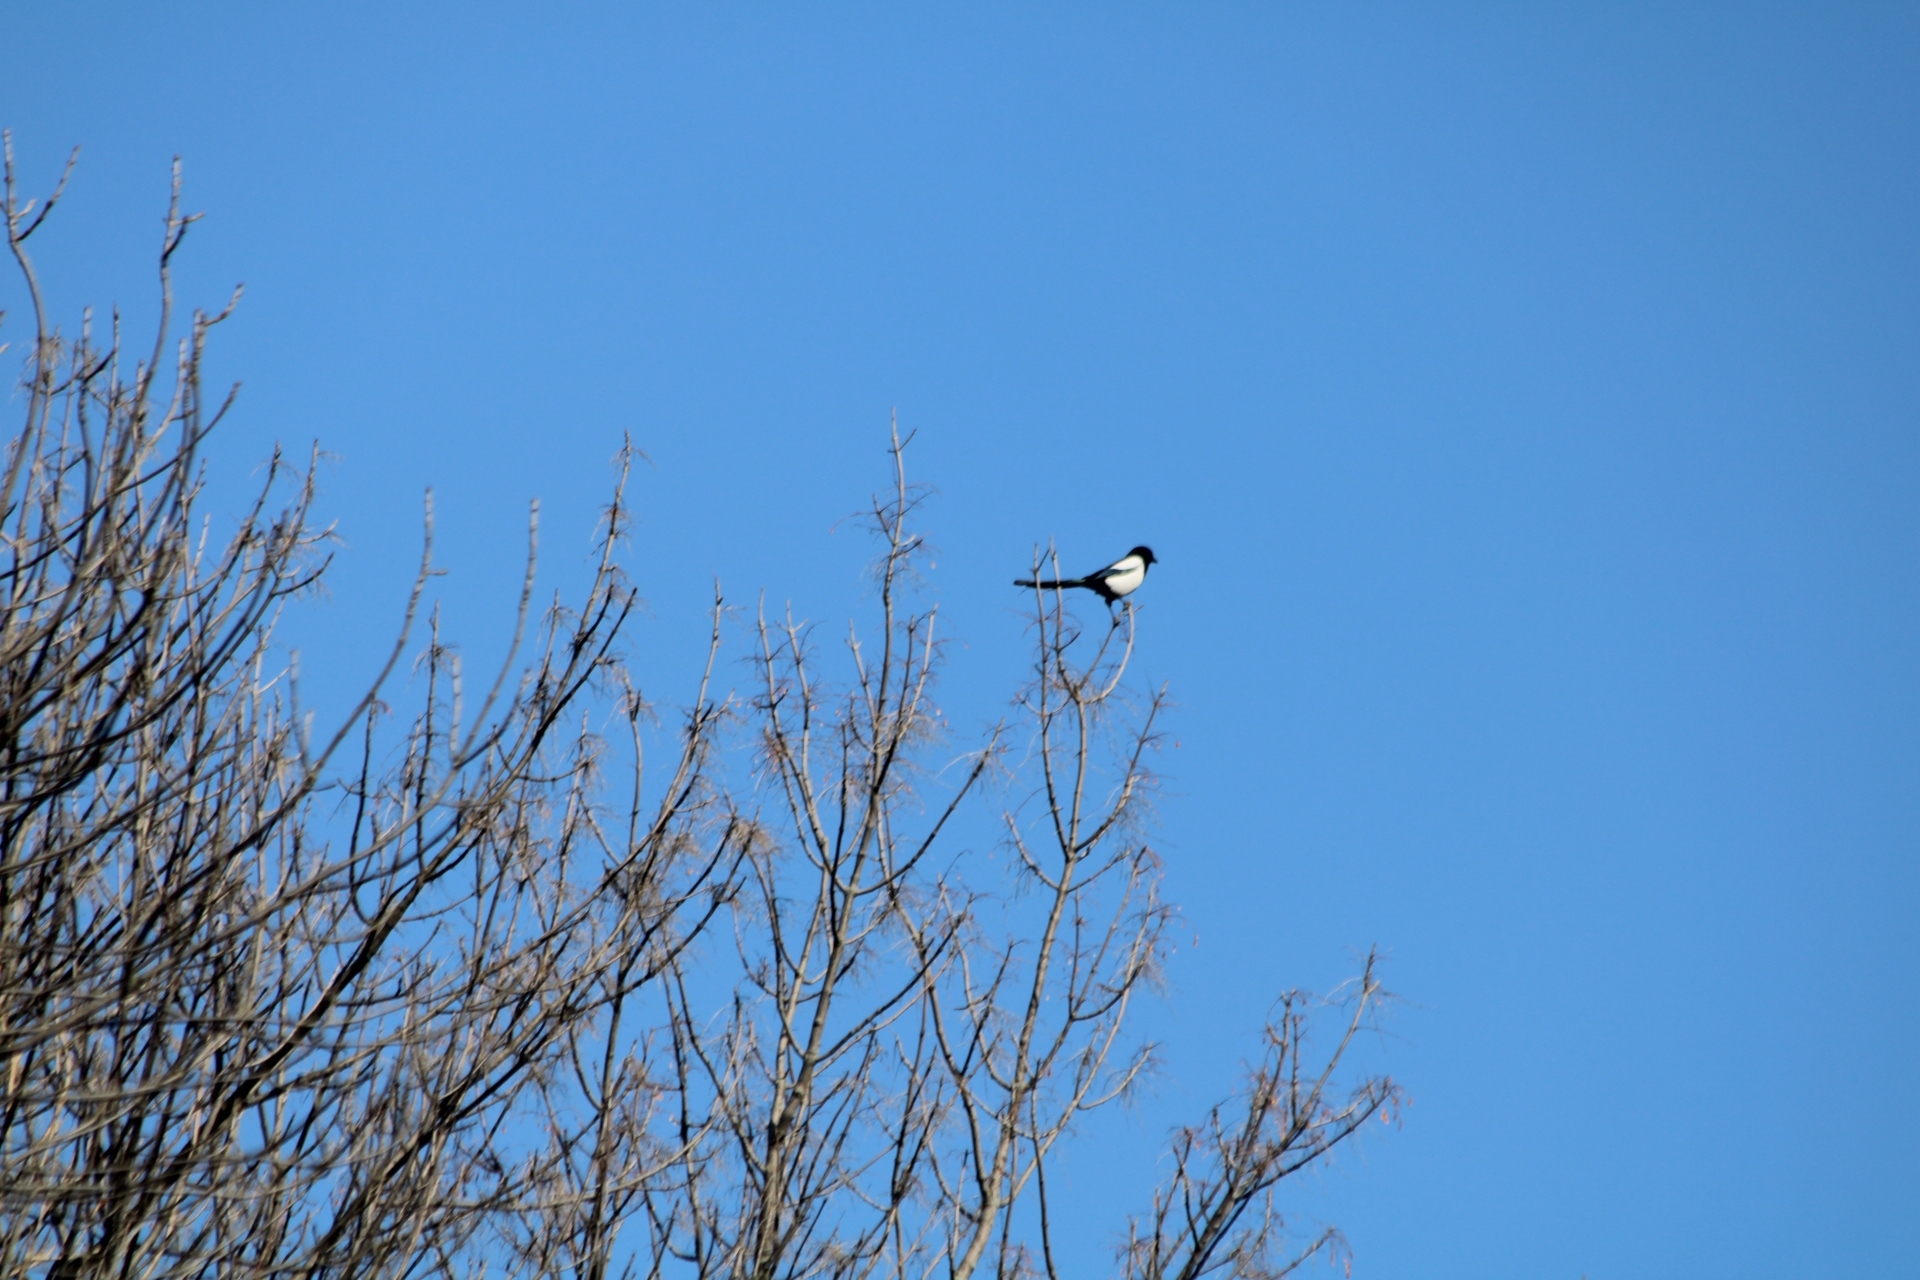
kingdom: Animalia
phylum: Chordata
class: Aves
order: Passeriformes
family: Corvidae
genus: Pica
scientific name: Pica pica
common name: Eurasian magpie
